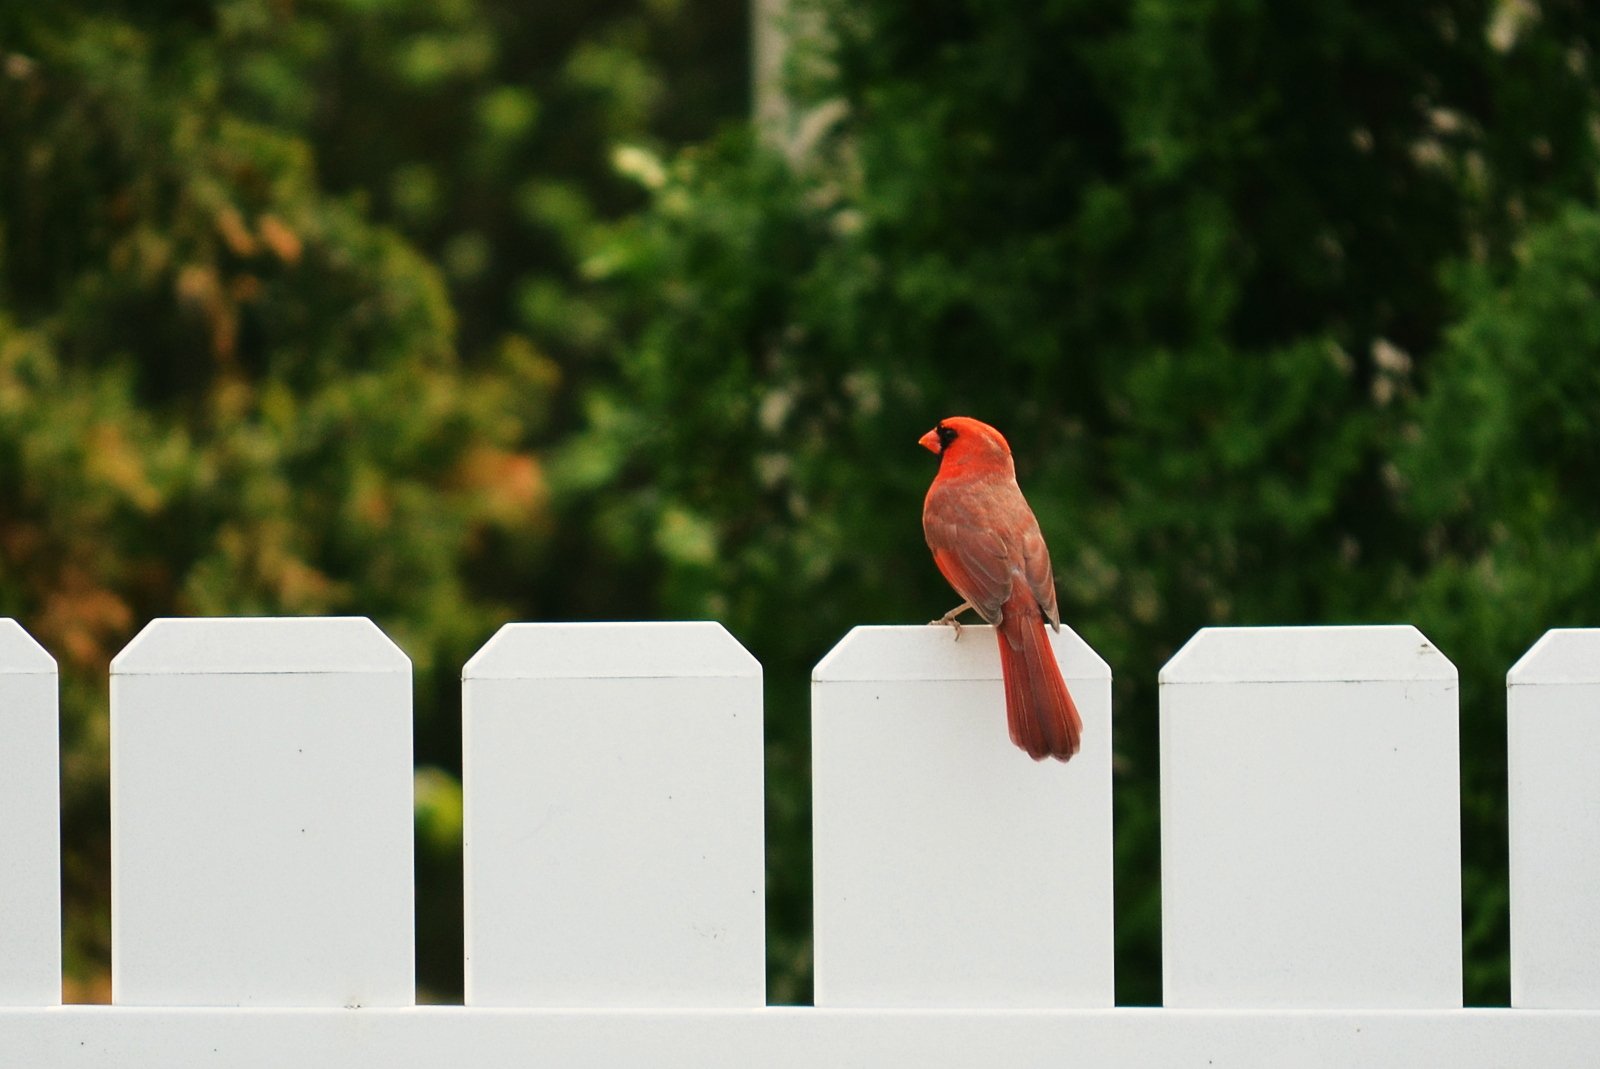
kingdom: Animalia
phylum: Chordata
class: Aves
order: Passeriformes
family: Cardinalidae
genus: Cardinalis
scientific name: Cardinalis cardinalis
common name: Northern cardinal
